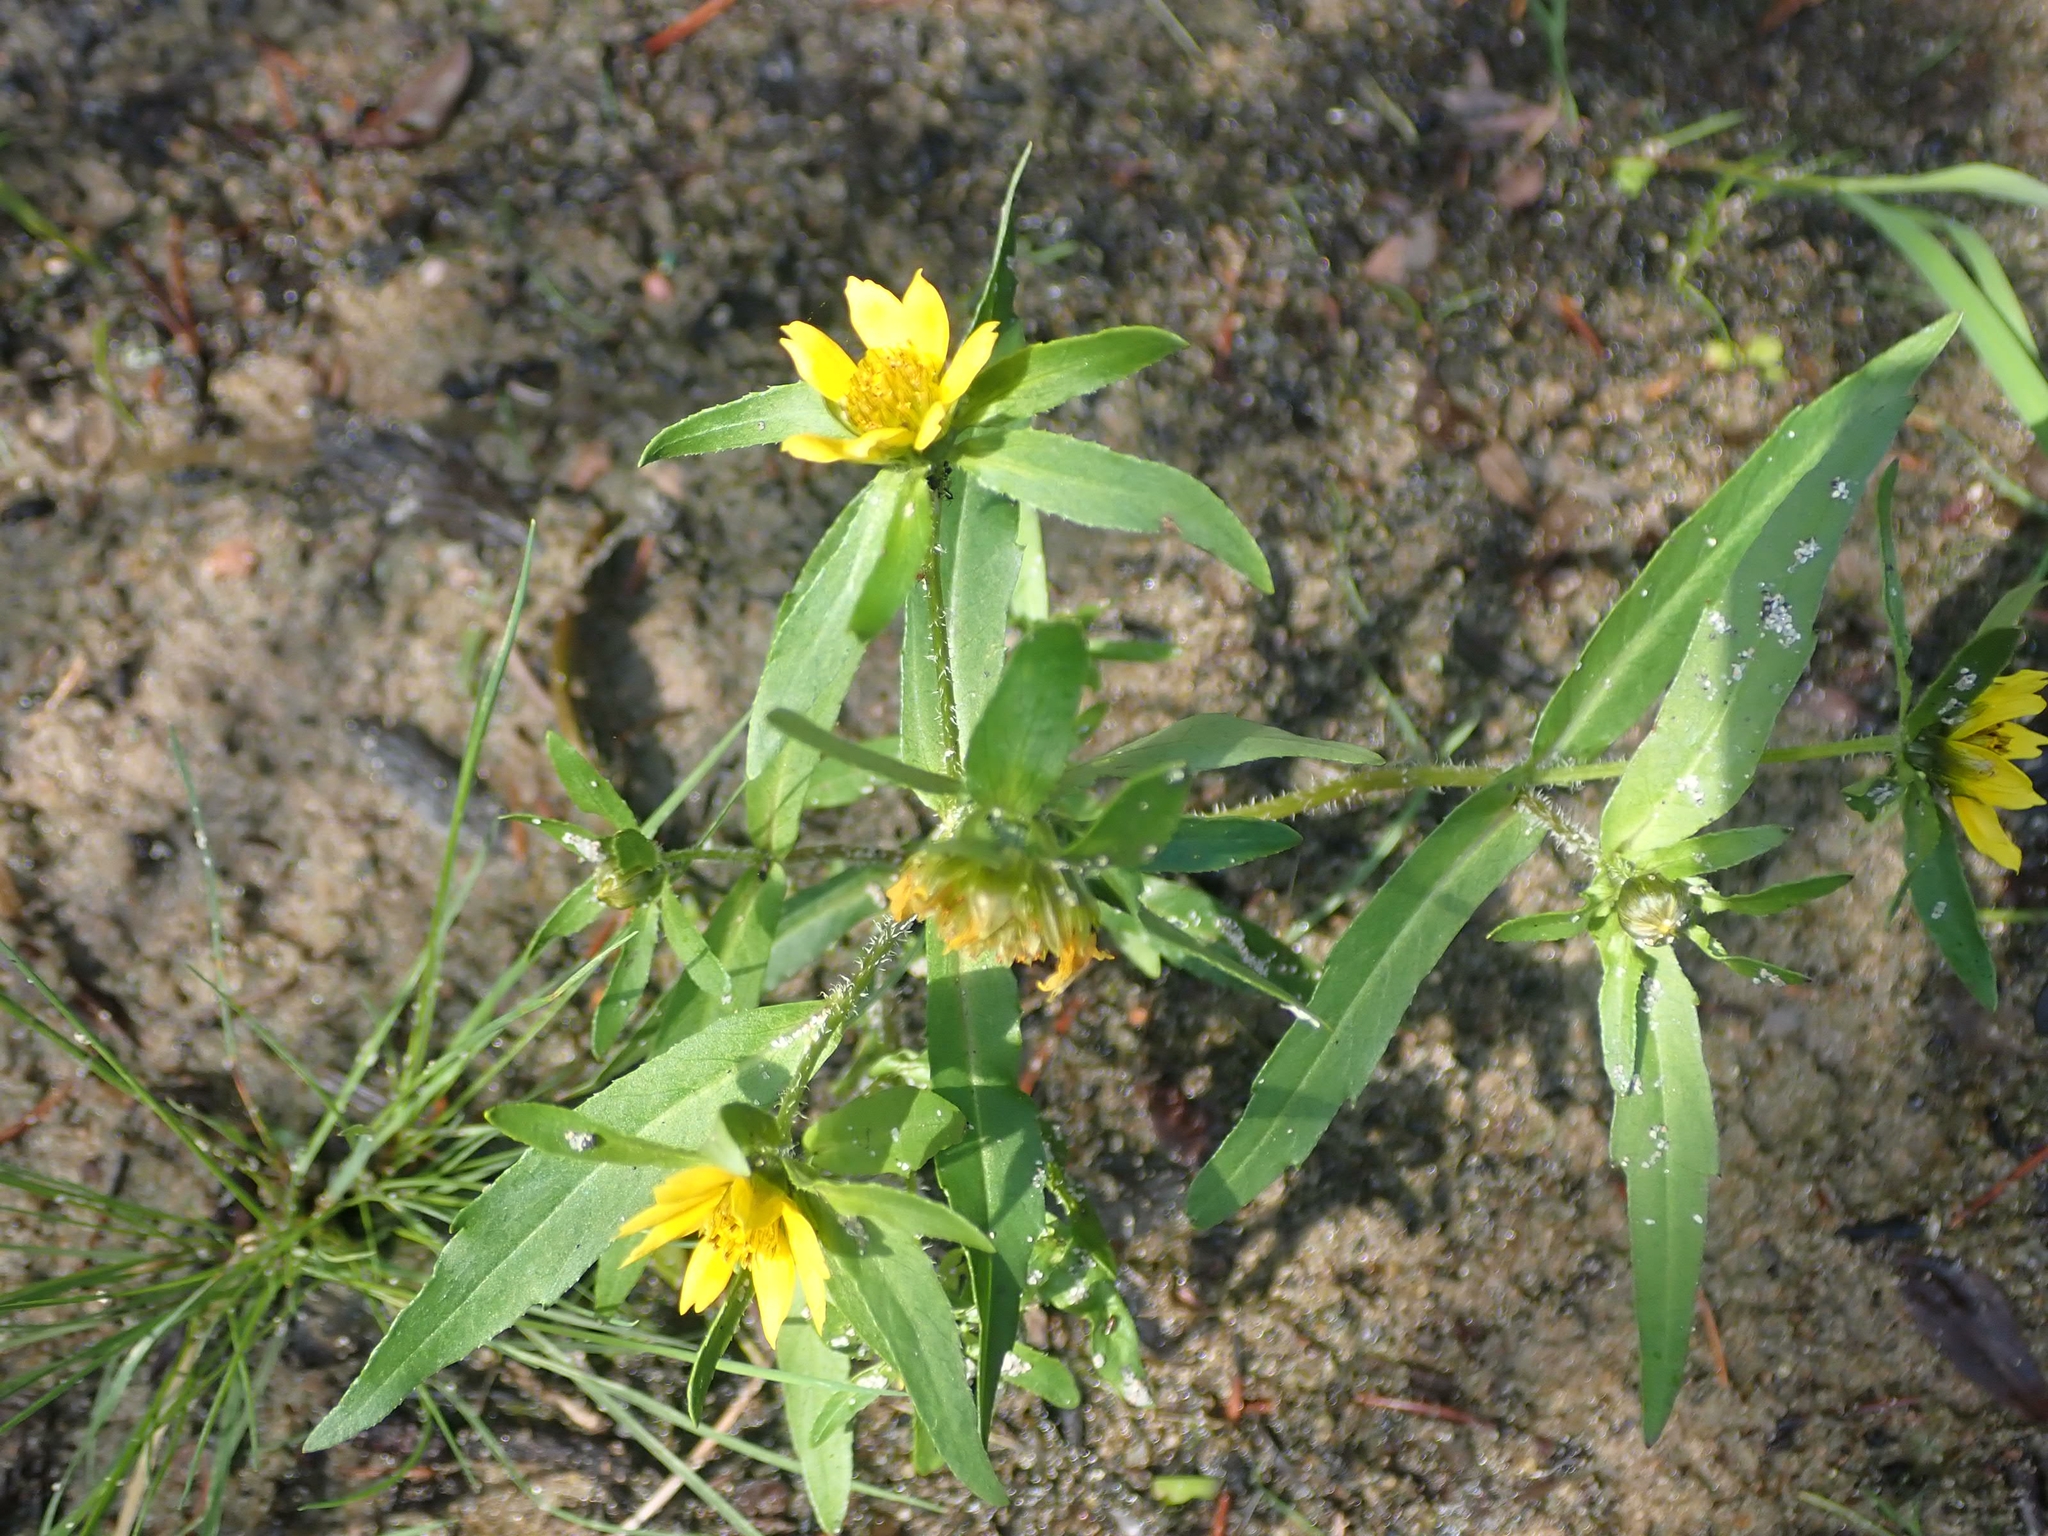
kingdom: Plantae
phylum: Tracheophyta
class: Magnoliopsida
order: Asterales
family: Asteraceae
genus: Bidens
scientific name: Bidens cernua
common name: Nodding bur-marigold
